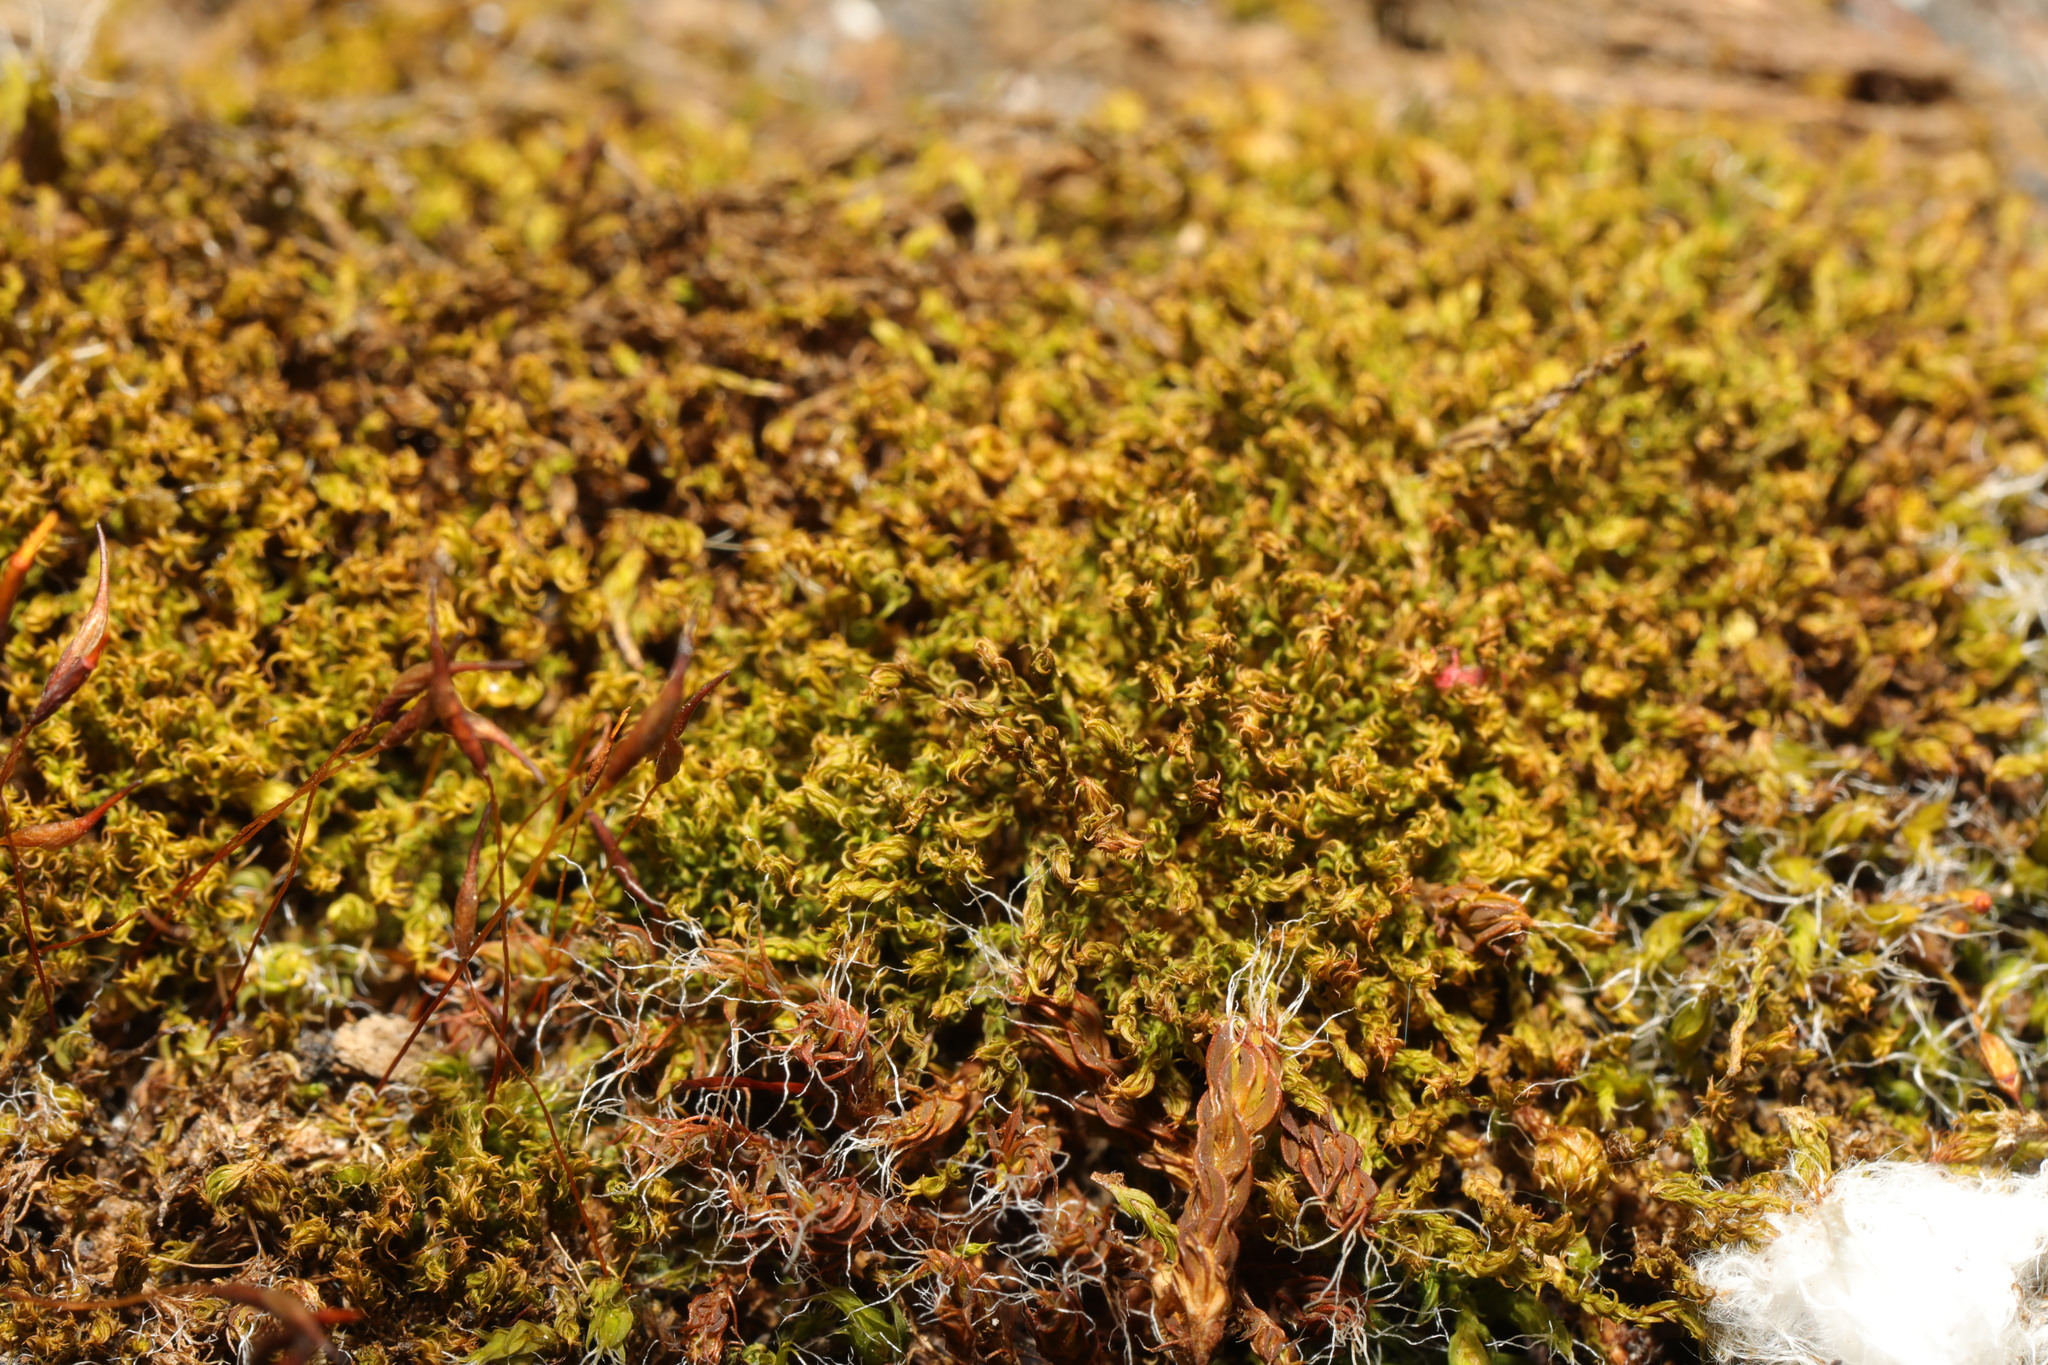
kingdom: Plantae
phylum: Bryophyta
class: Bryopsida
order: Pottiales
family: Pottiaceae
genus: Syntrichia
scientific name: Syntrichia ruralis
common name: Sidewalk screw moss
